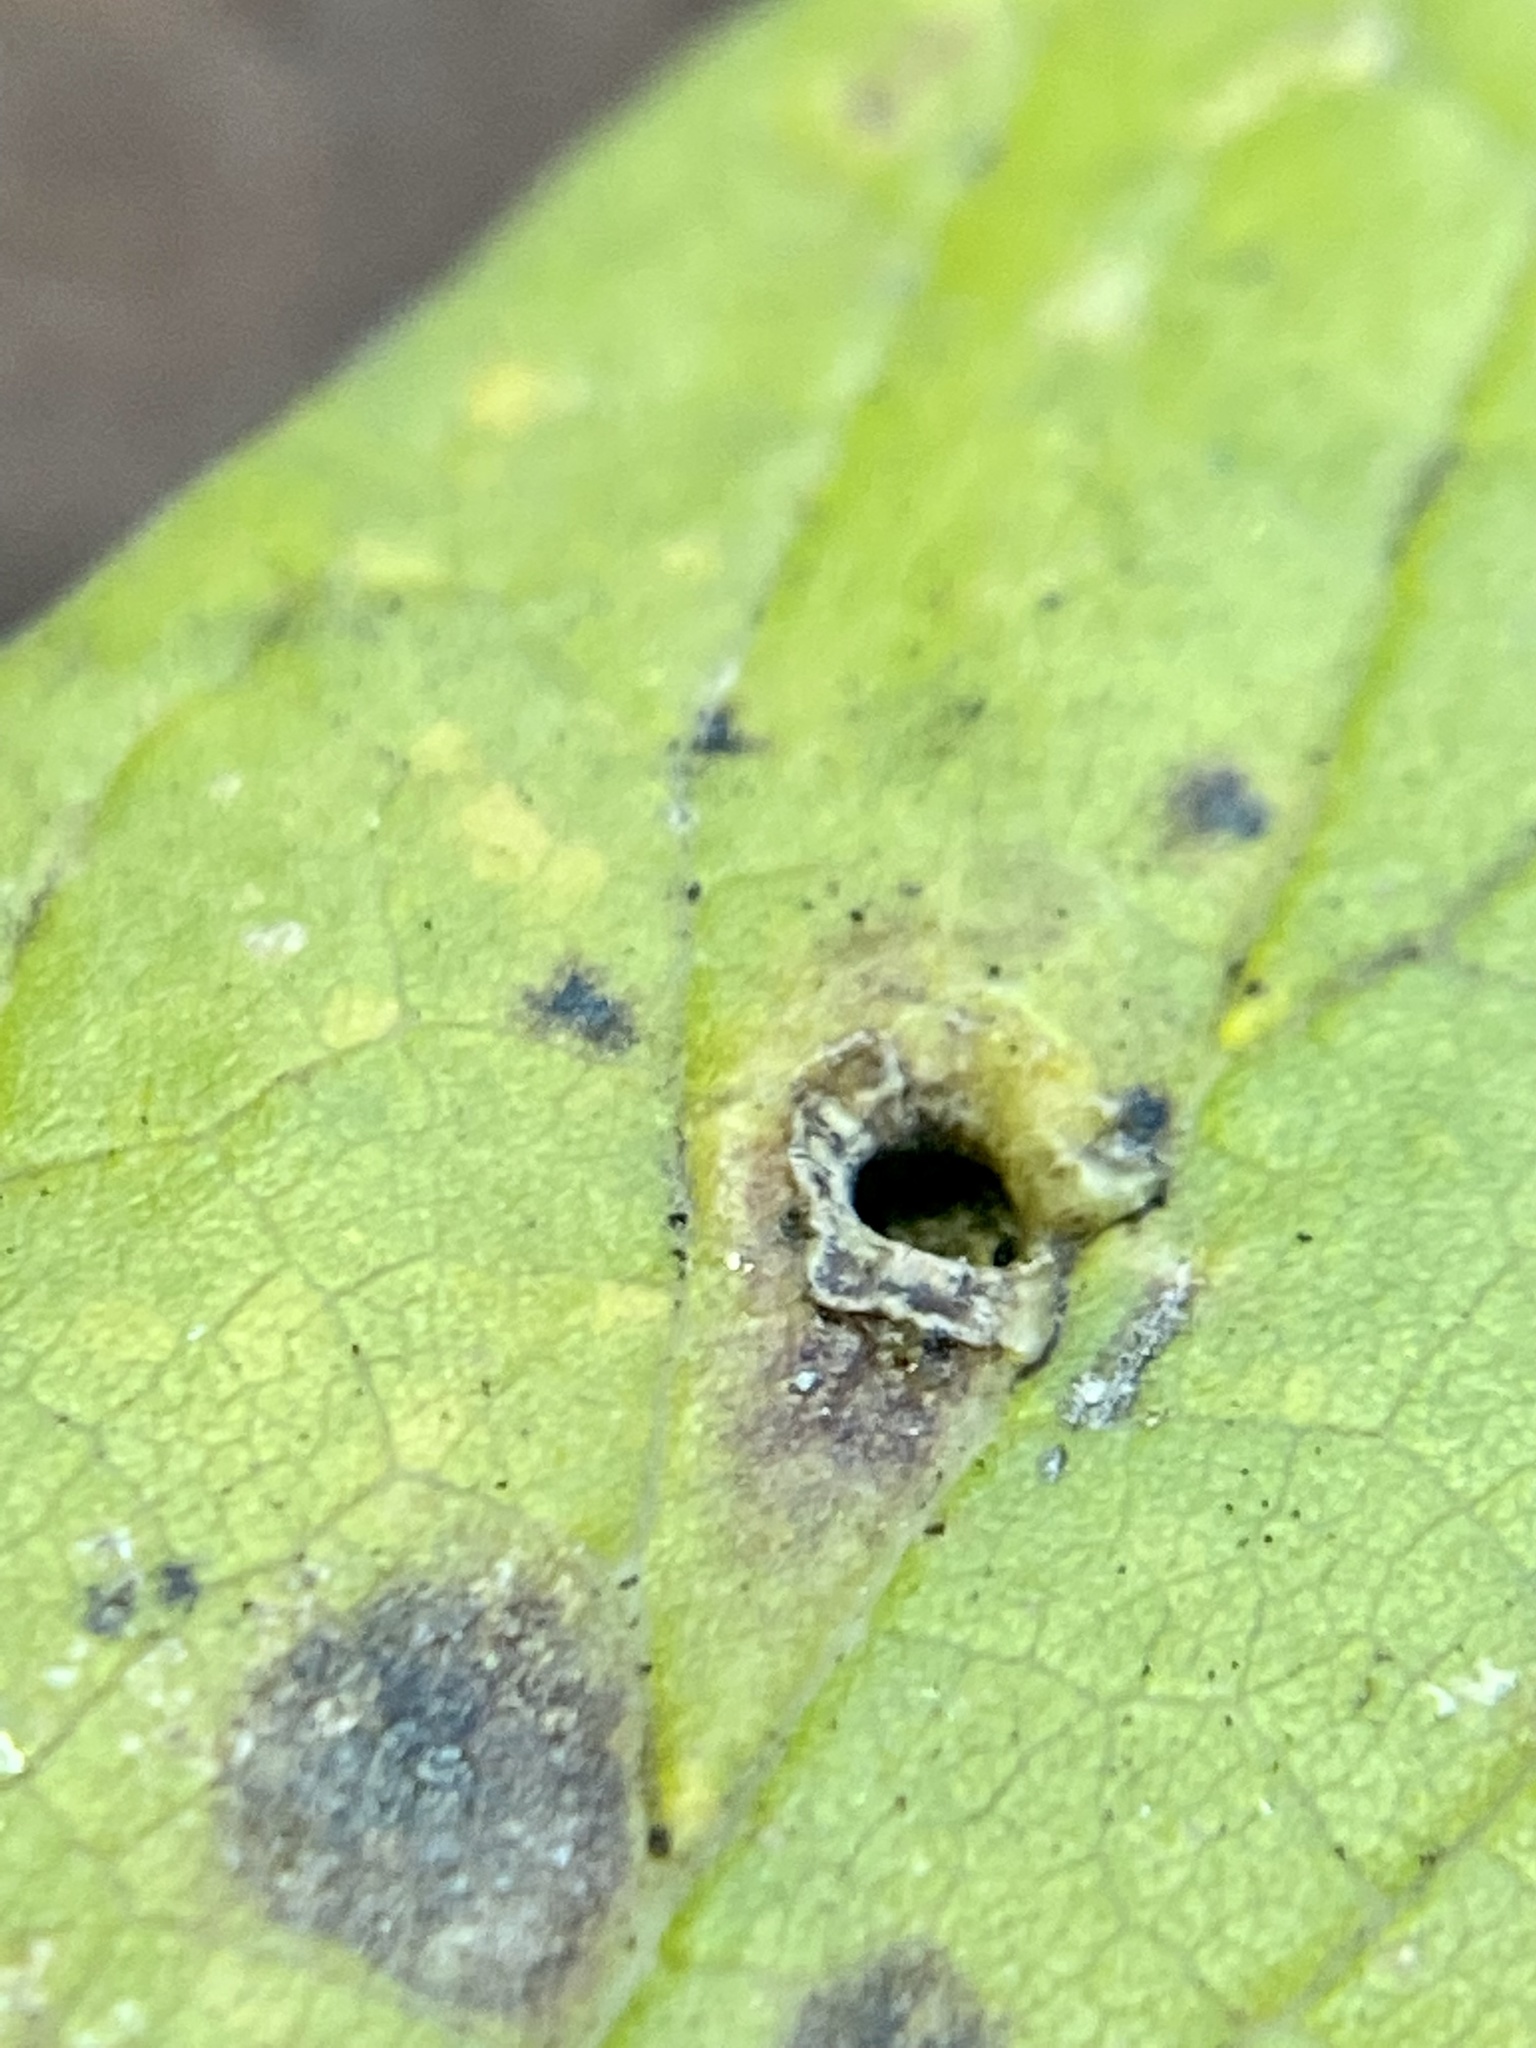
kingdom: Animalia
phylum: Arthropoda
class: Insecta
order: Hemiptera
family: Aphalaridae
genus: Pachypsylla
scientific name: Pachypsylla celtidismamma
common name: Hackberry nipplegall psyllid
